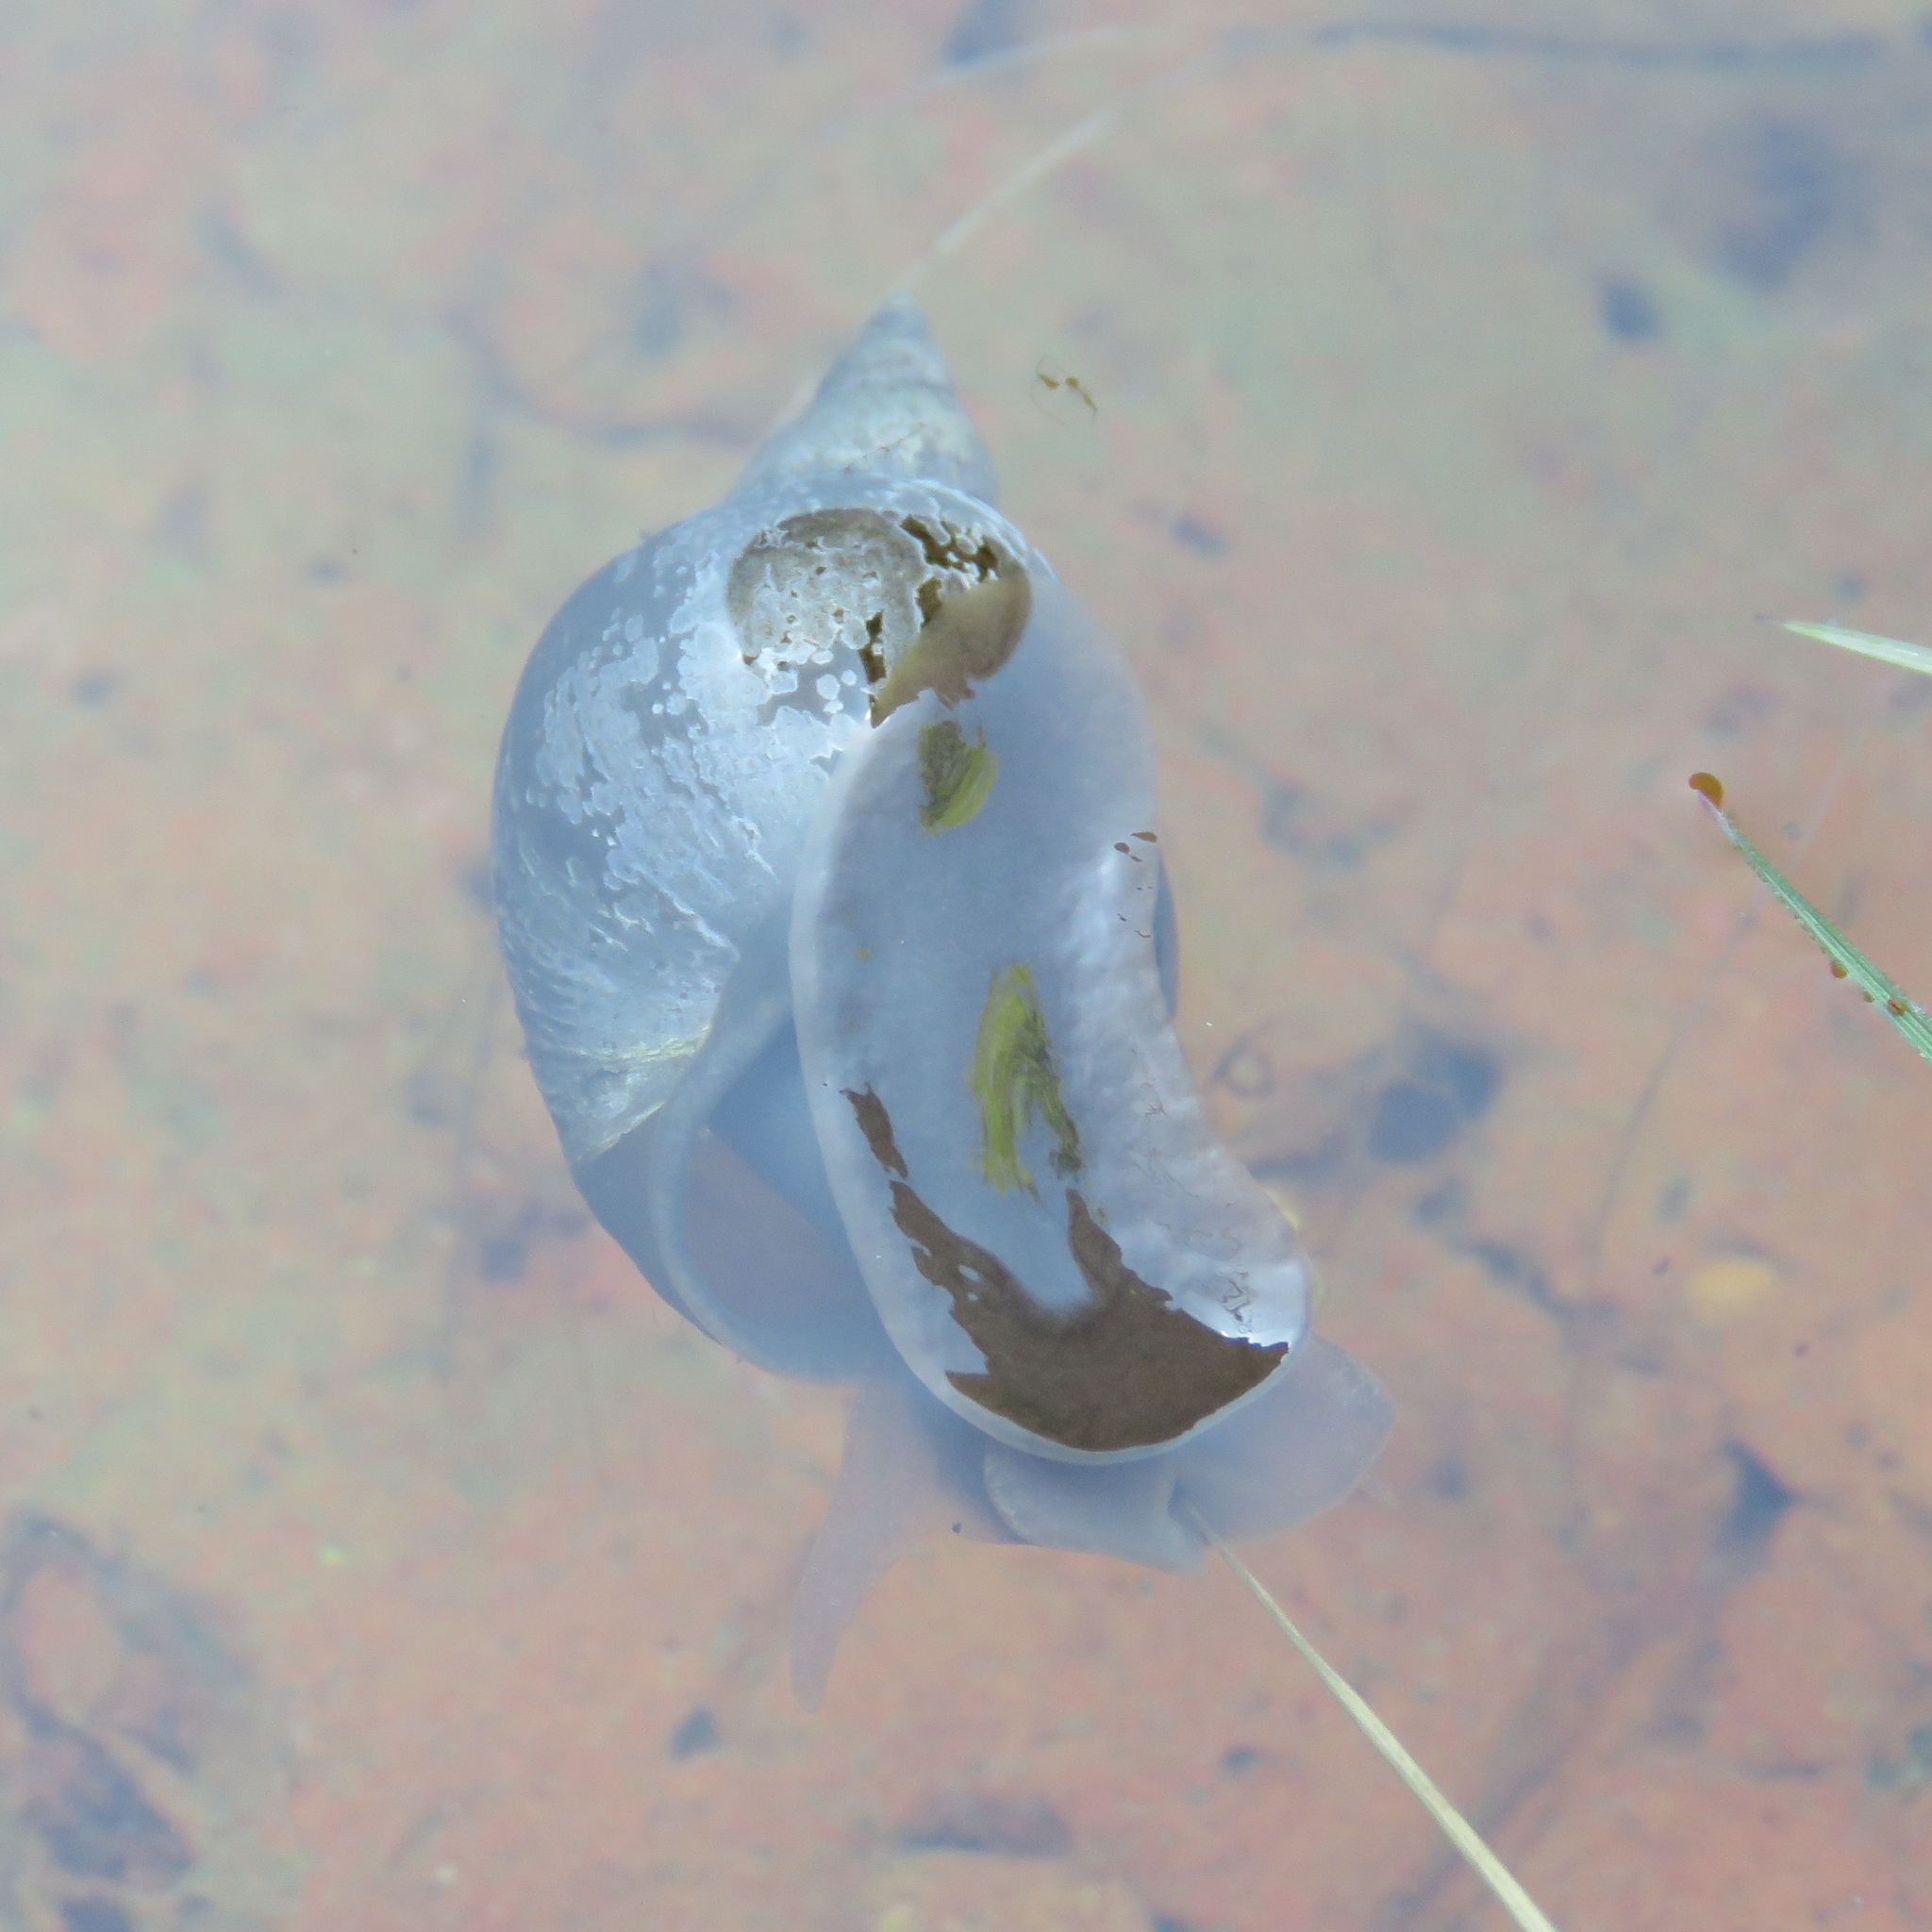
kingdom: Animalia
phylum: Mollusca
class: Gastropoda
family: Lymnaeidae
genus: Lymnaea
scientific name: Lymnaea stagnalis
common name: Great pond snail
